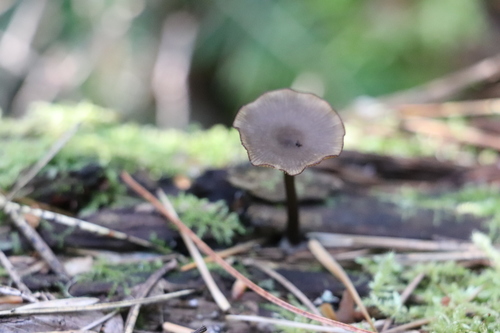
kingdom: Fungi
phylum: Basidiomycota
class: Agaricomycetes
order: Agaricales
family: Hygrophoraceae
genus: Arrhenia
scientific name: Arrhenia epichysium
